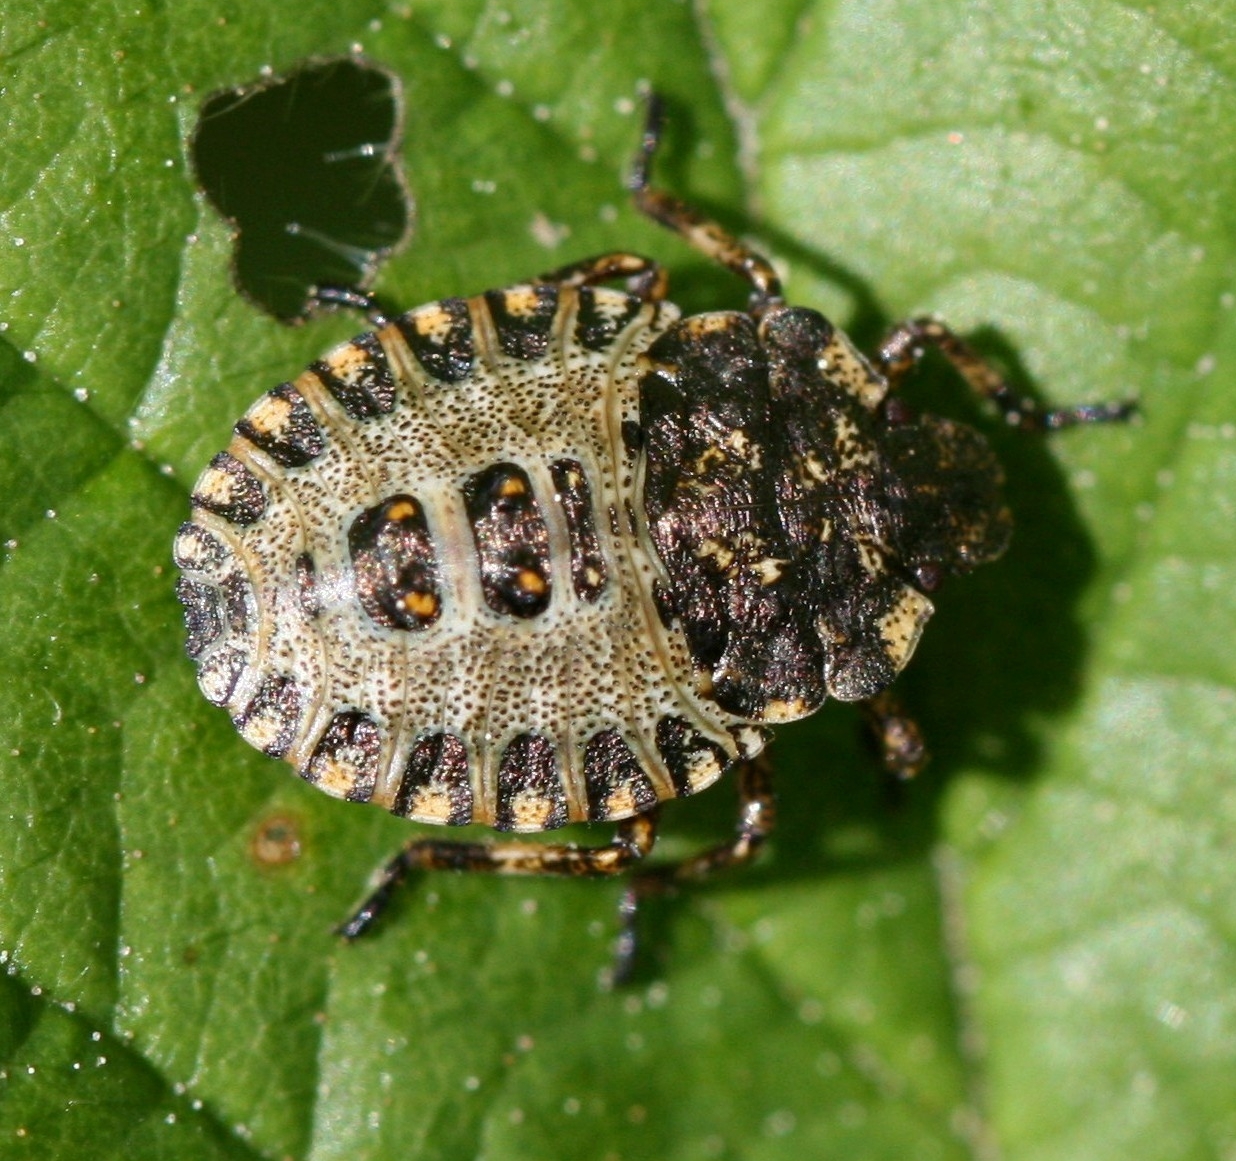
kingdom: Animalia
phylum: Arthropoda
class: Insecta
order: Hemiptera
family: Pentatomidae
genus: Pentatoma
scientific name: Pentatoma rufipes
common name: Forest bug
